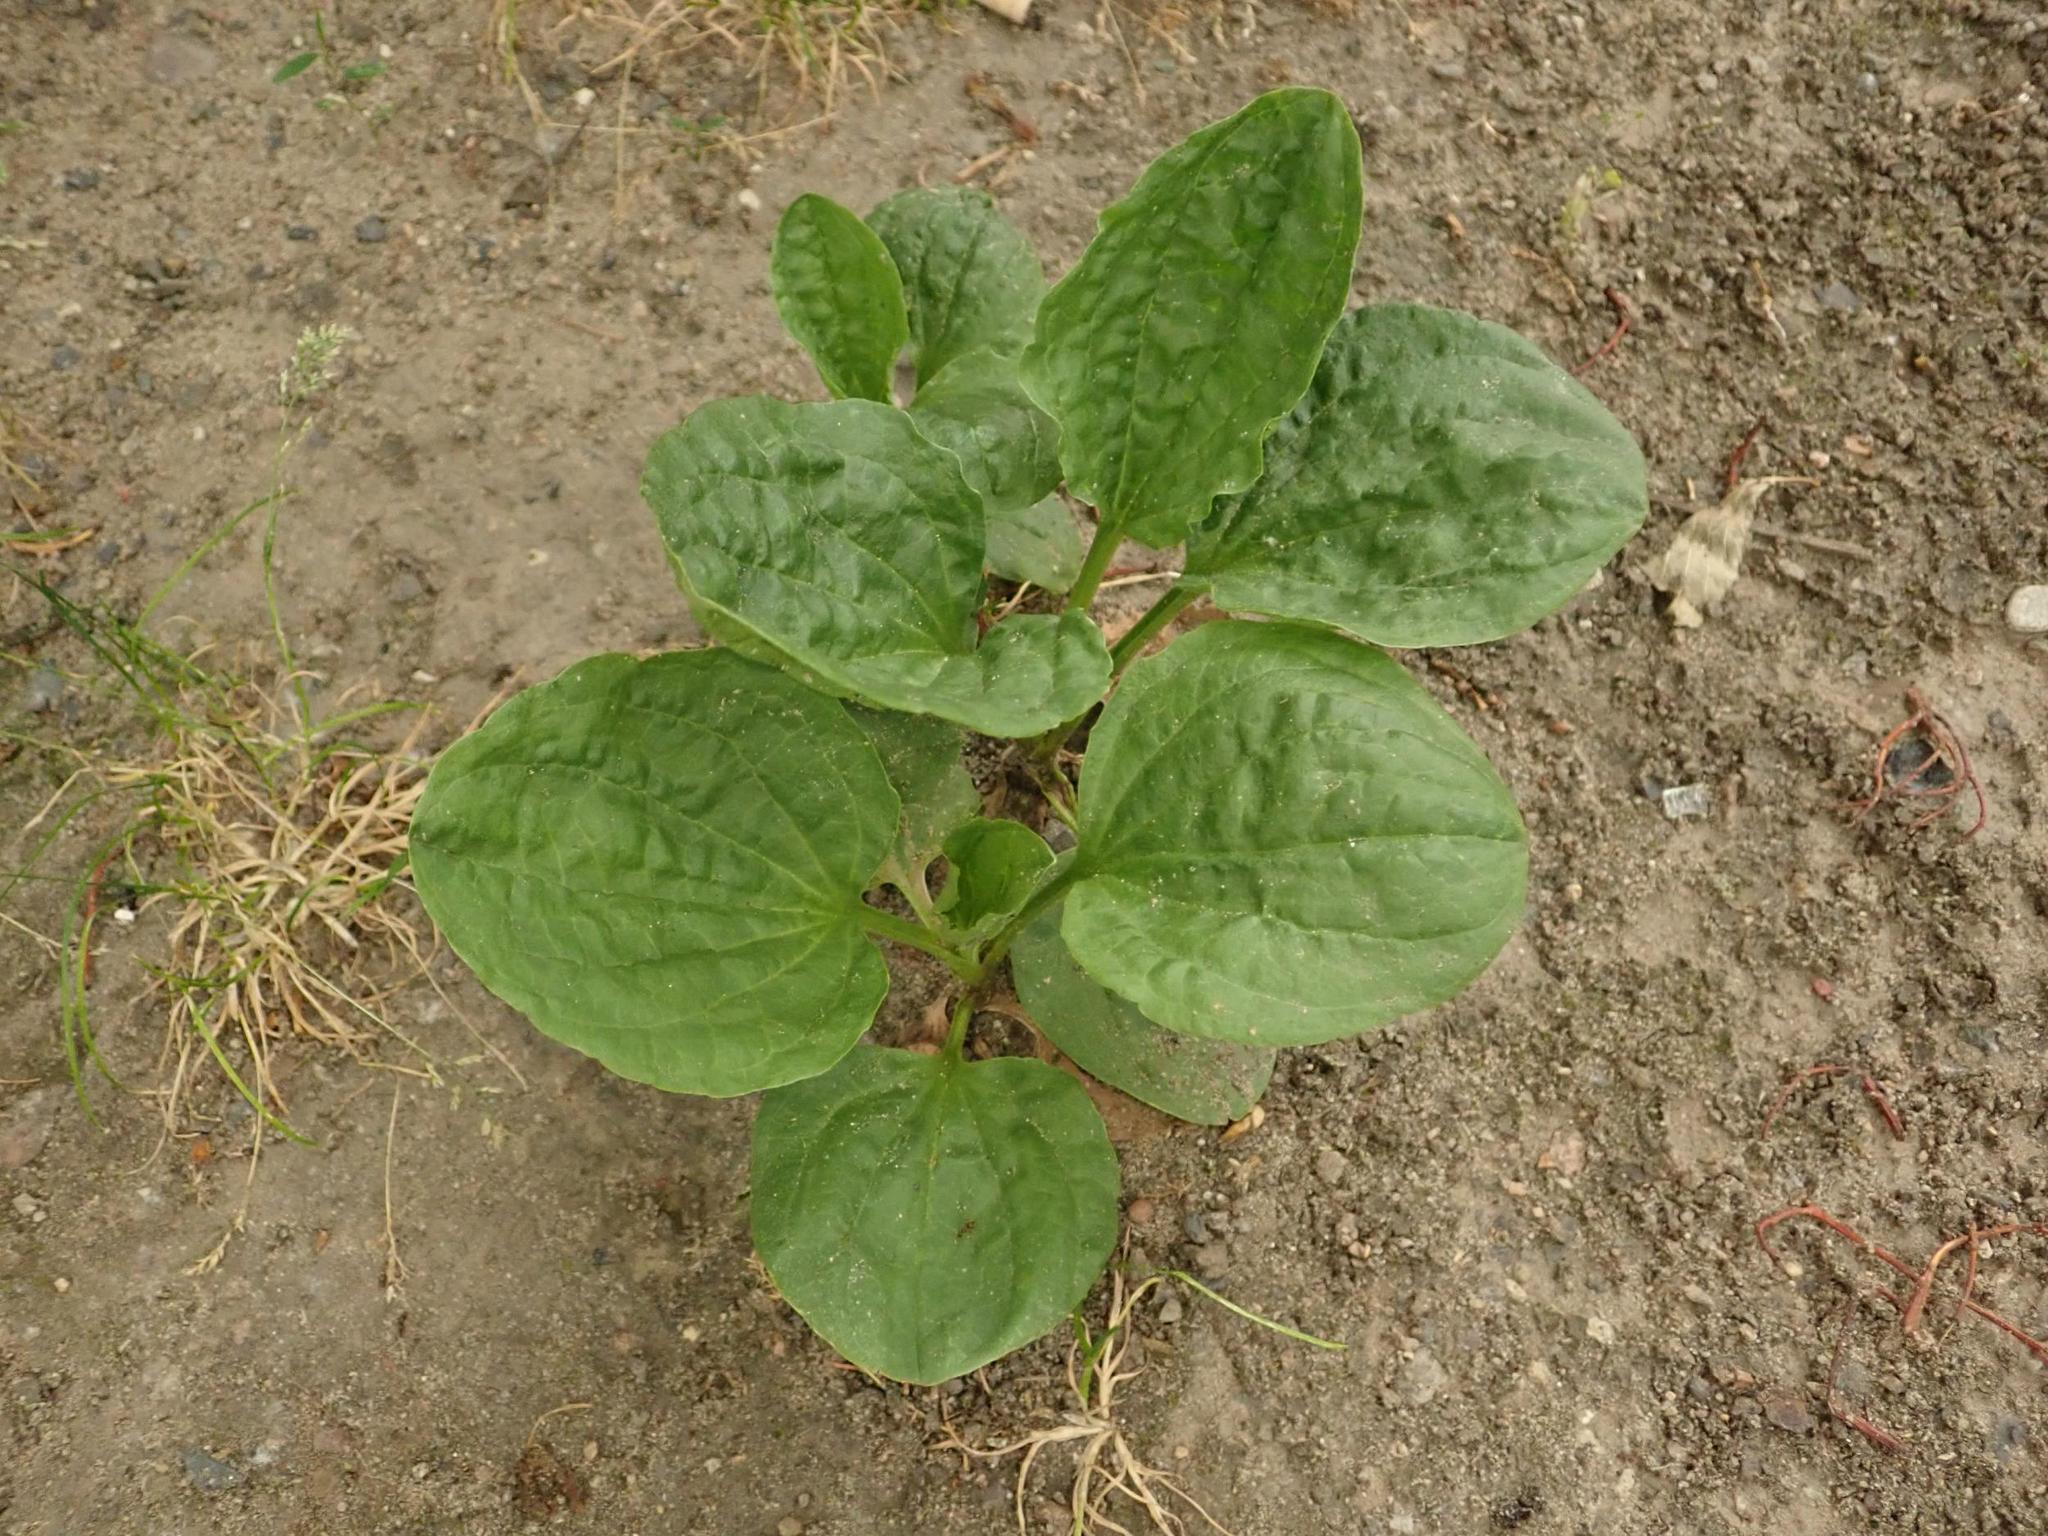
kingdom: Plantae
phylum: Tracheophyta
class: Magnoliopsida
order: Lamiales
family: Plantaginaceae
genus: Plantago
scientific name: Plantago major
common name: Common plantain
